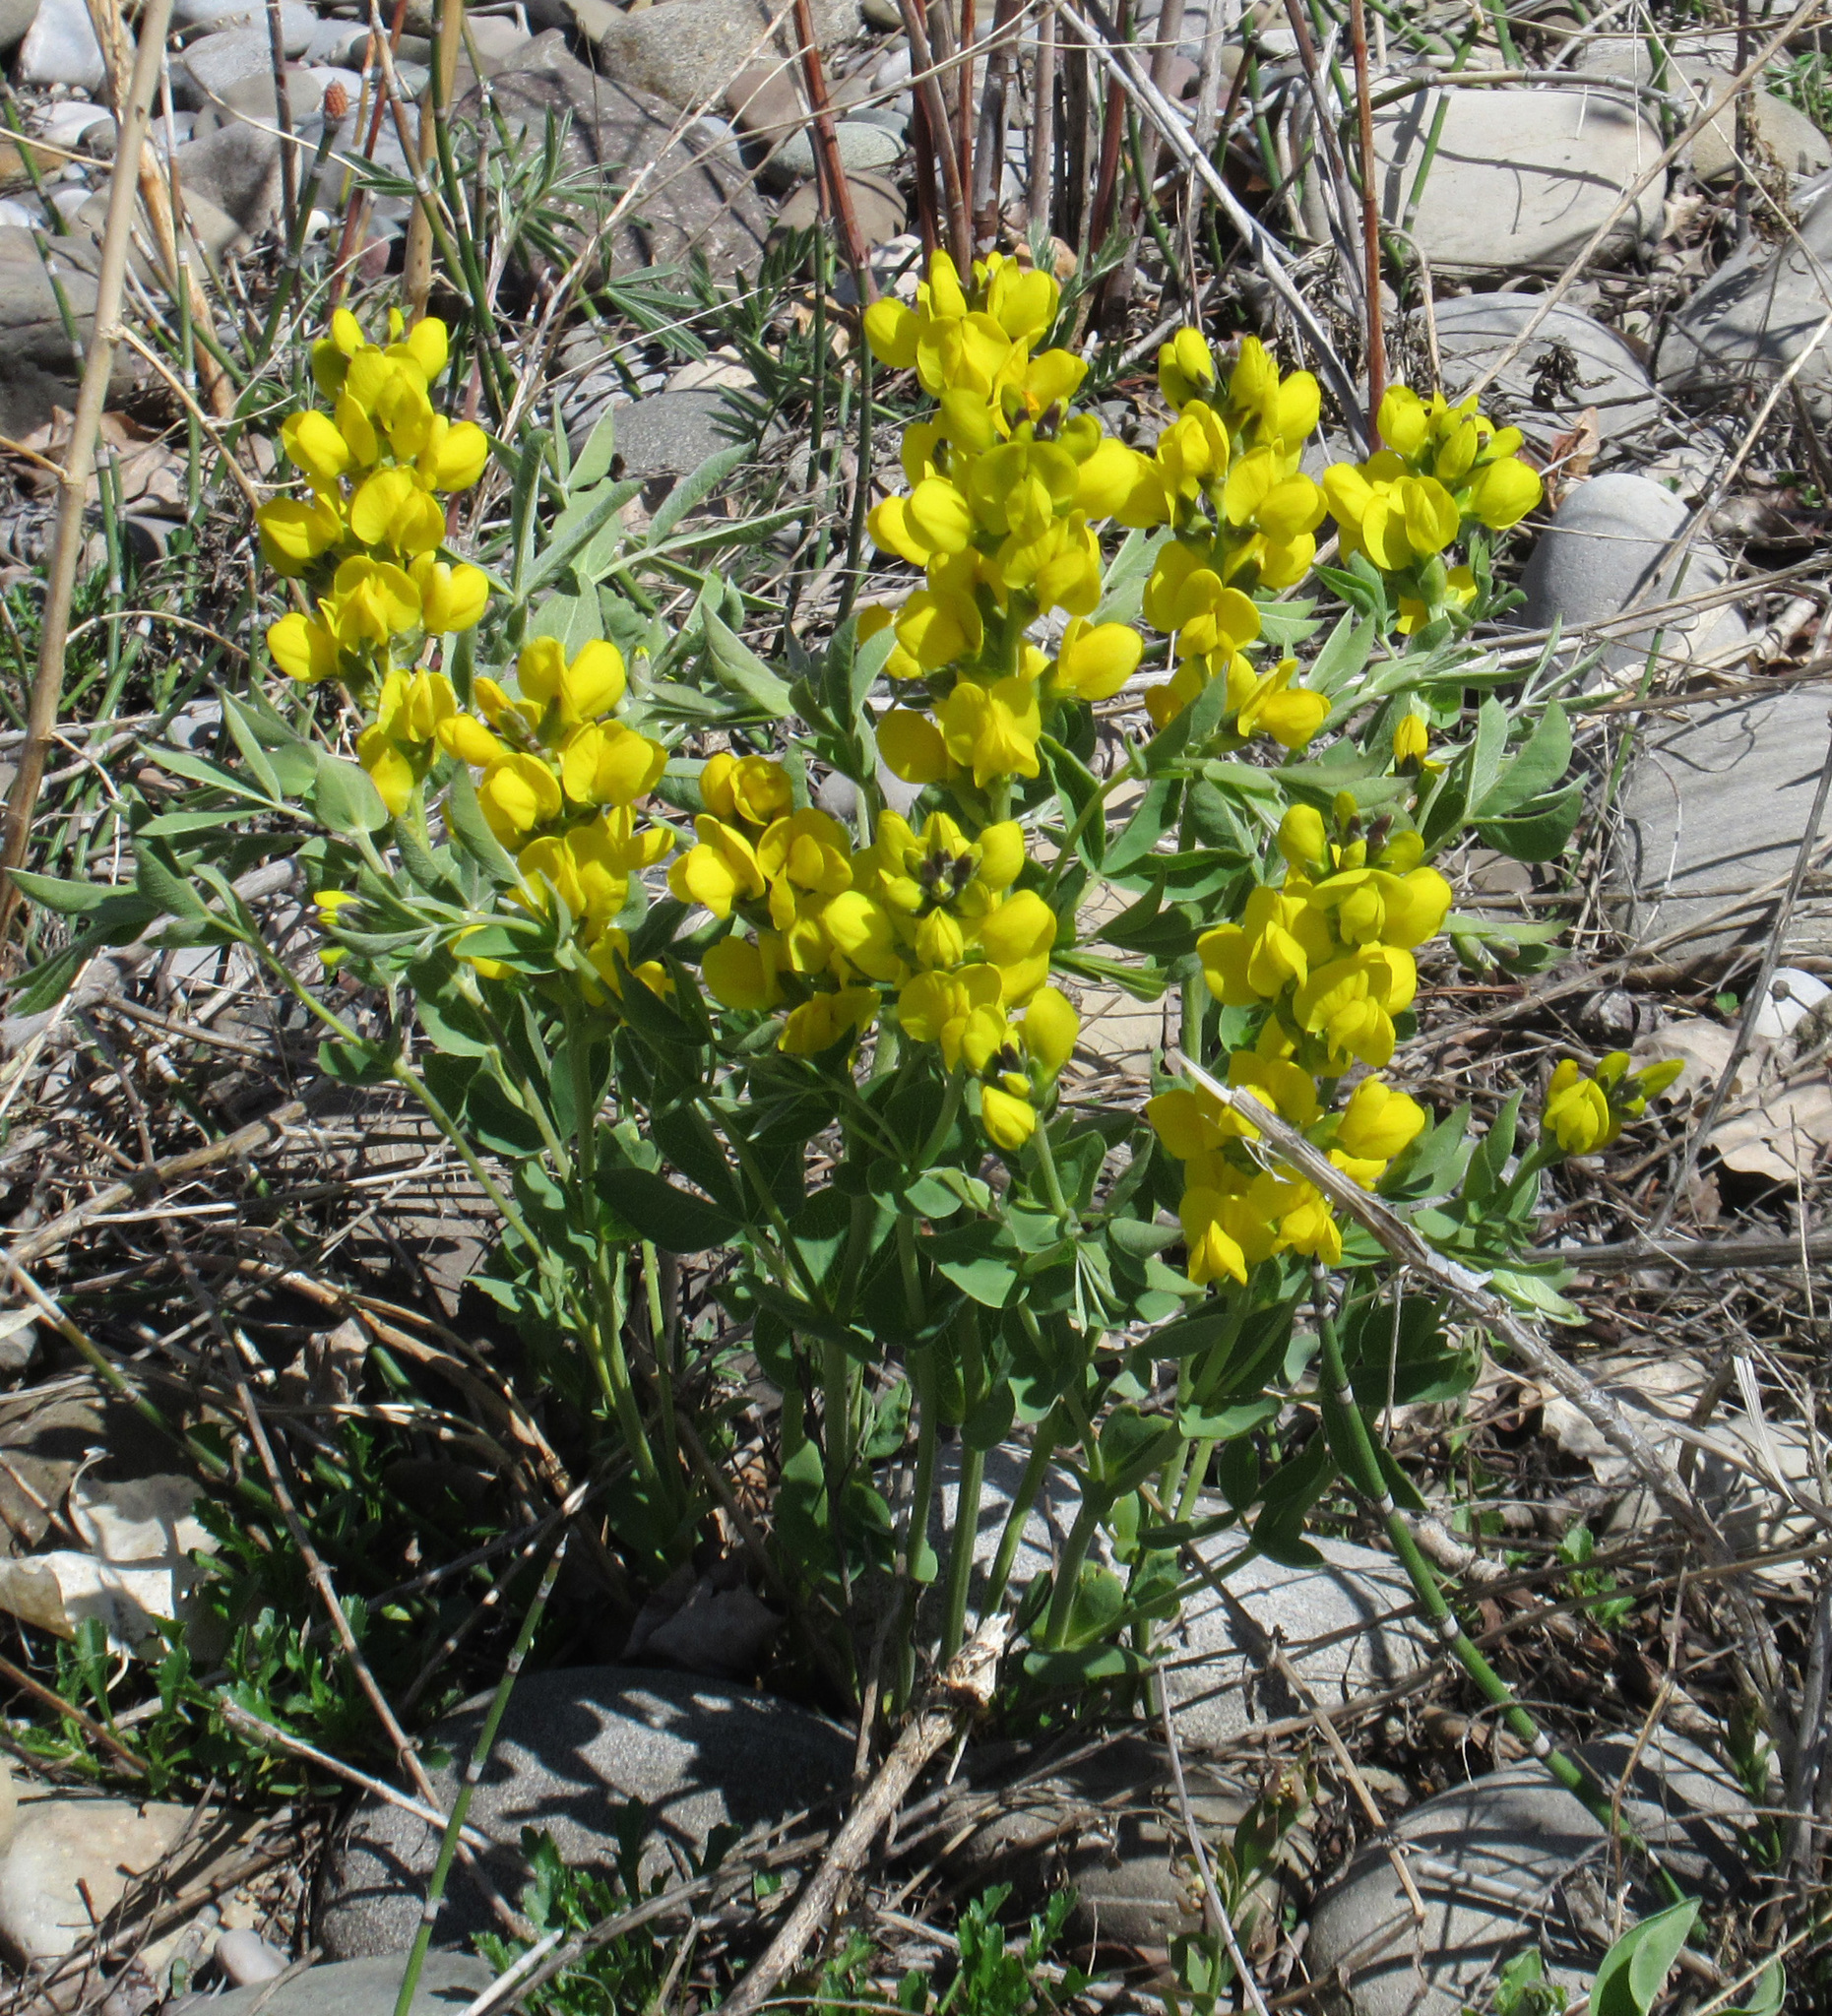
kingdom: Plantae
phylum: Tracheophyta
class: Magnoliopsida
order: Fabales
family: Fabaceae
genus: Thermopsis
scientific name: Thermopsis rhombifolia
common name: Circle-pod-pea
